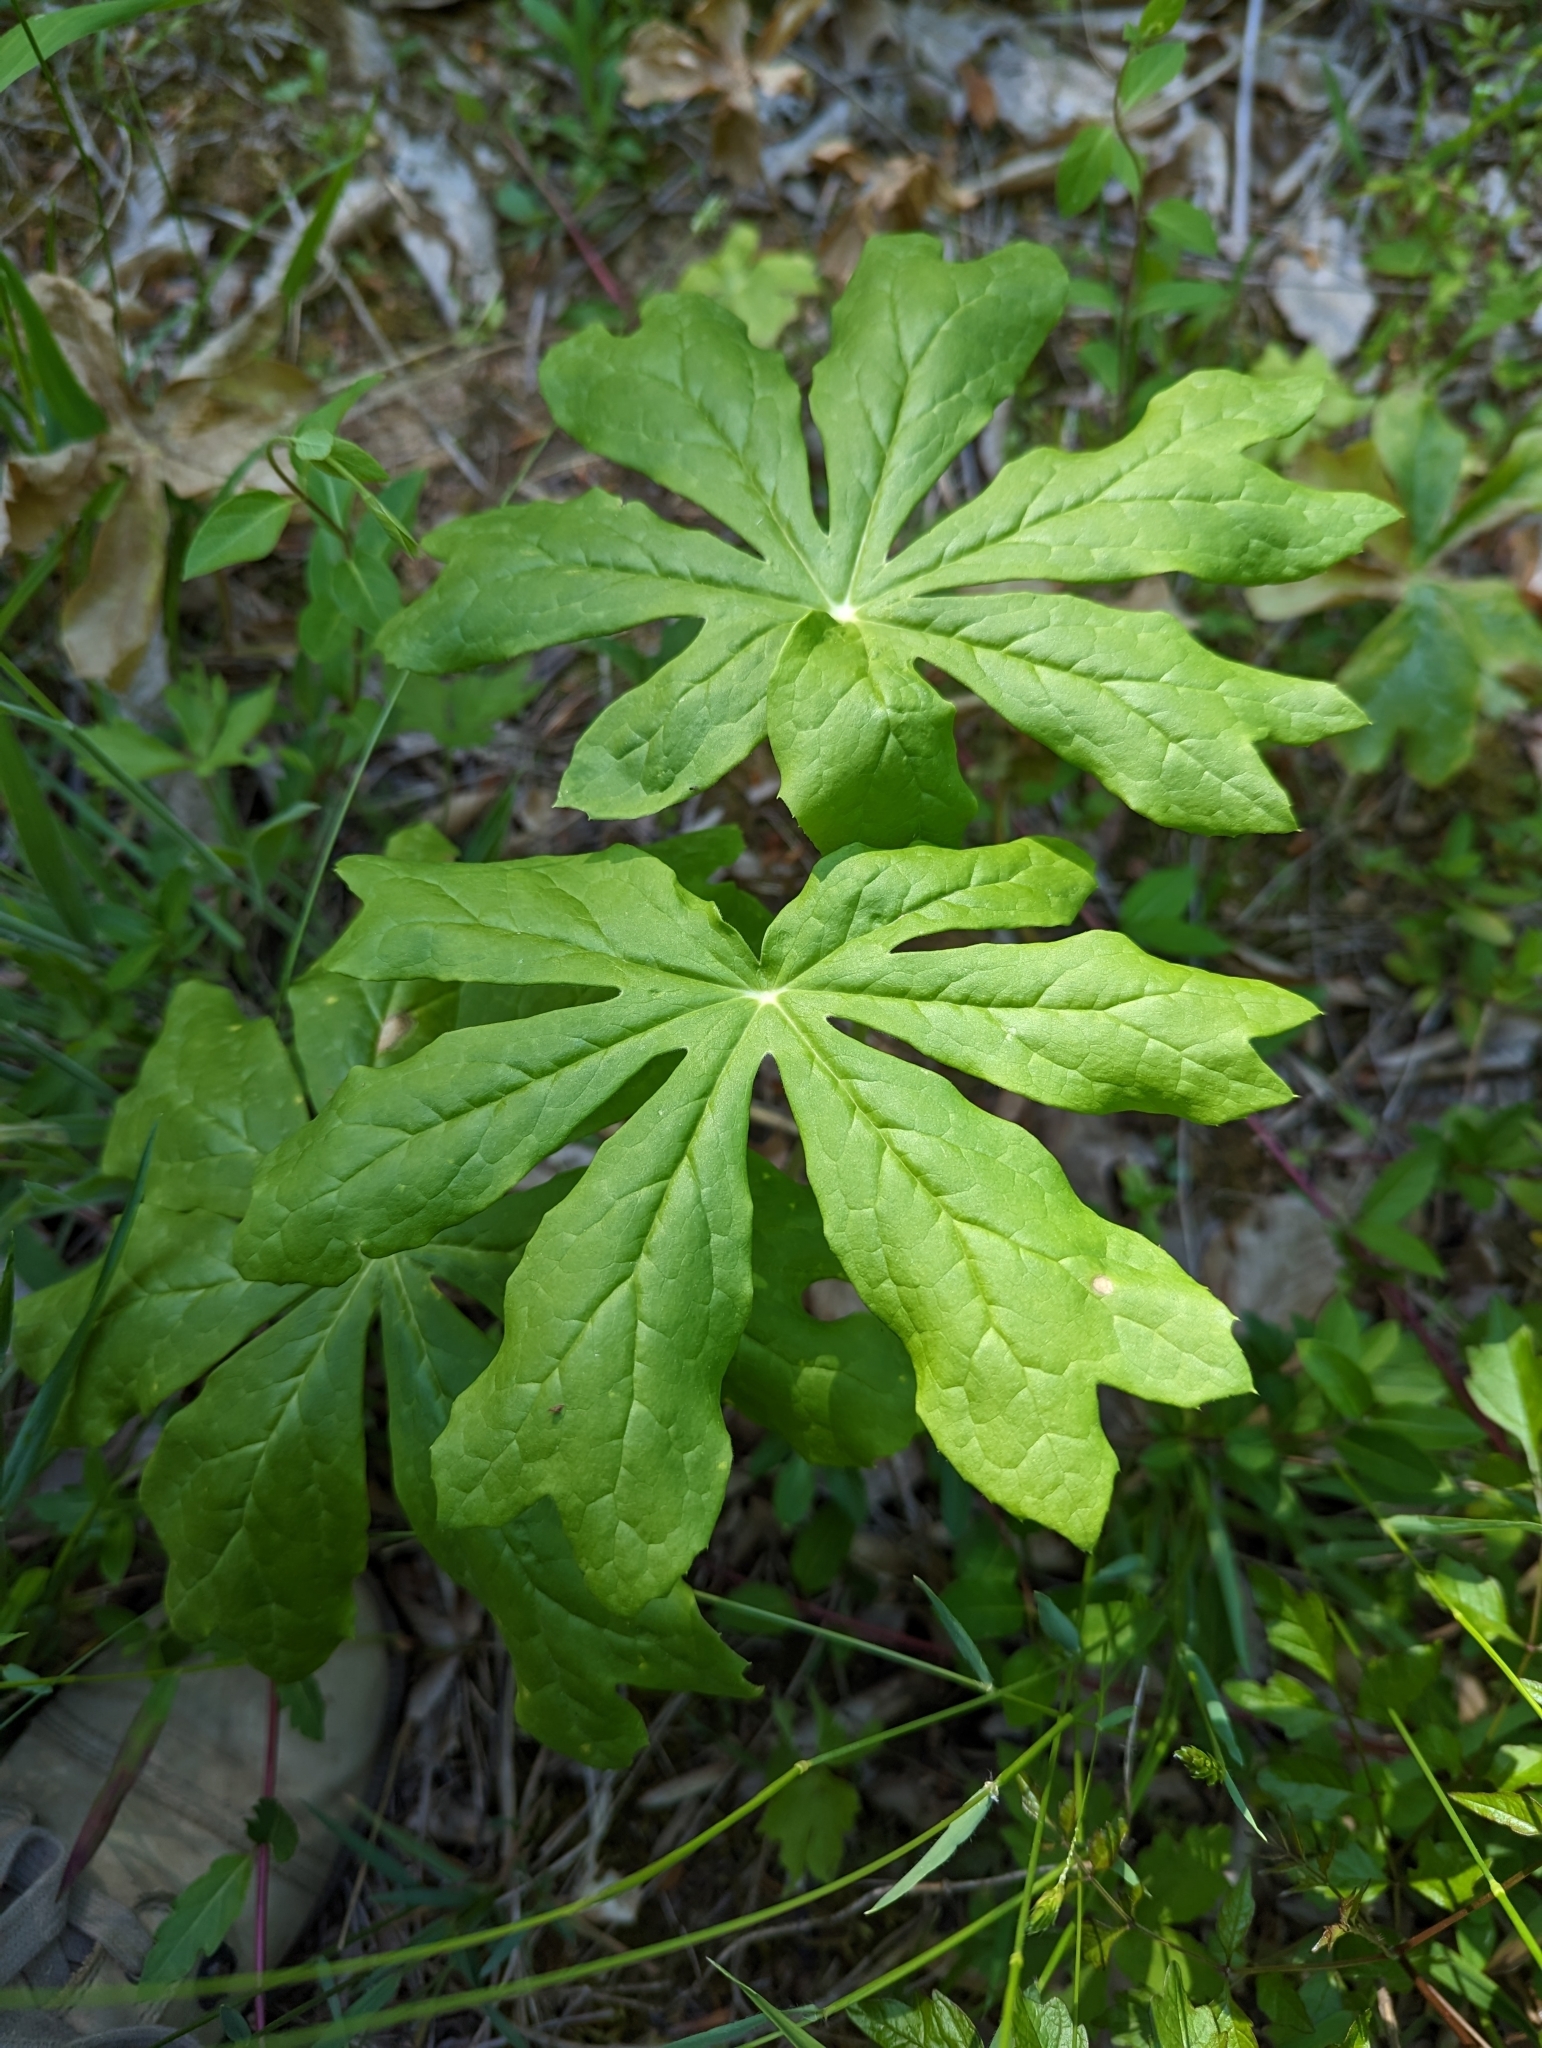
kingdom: Plantae
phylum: Tracheophyta
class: Magnoliopsida
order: Ranunculales
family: Berberidaceae
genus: Podophyllum
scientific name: Podophyllum peltatum
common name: Wild mandrake
